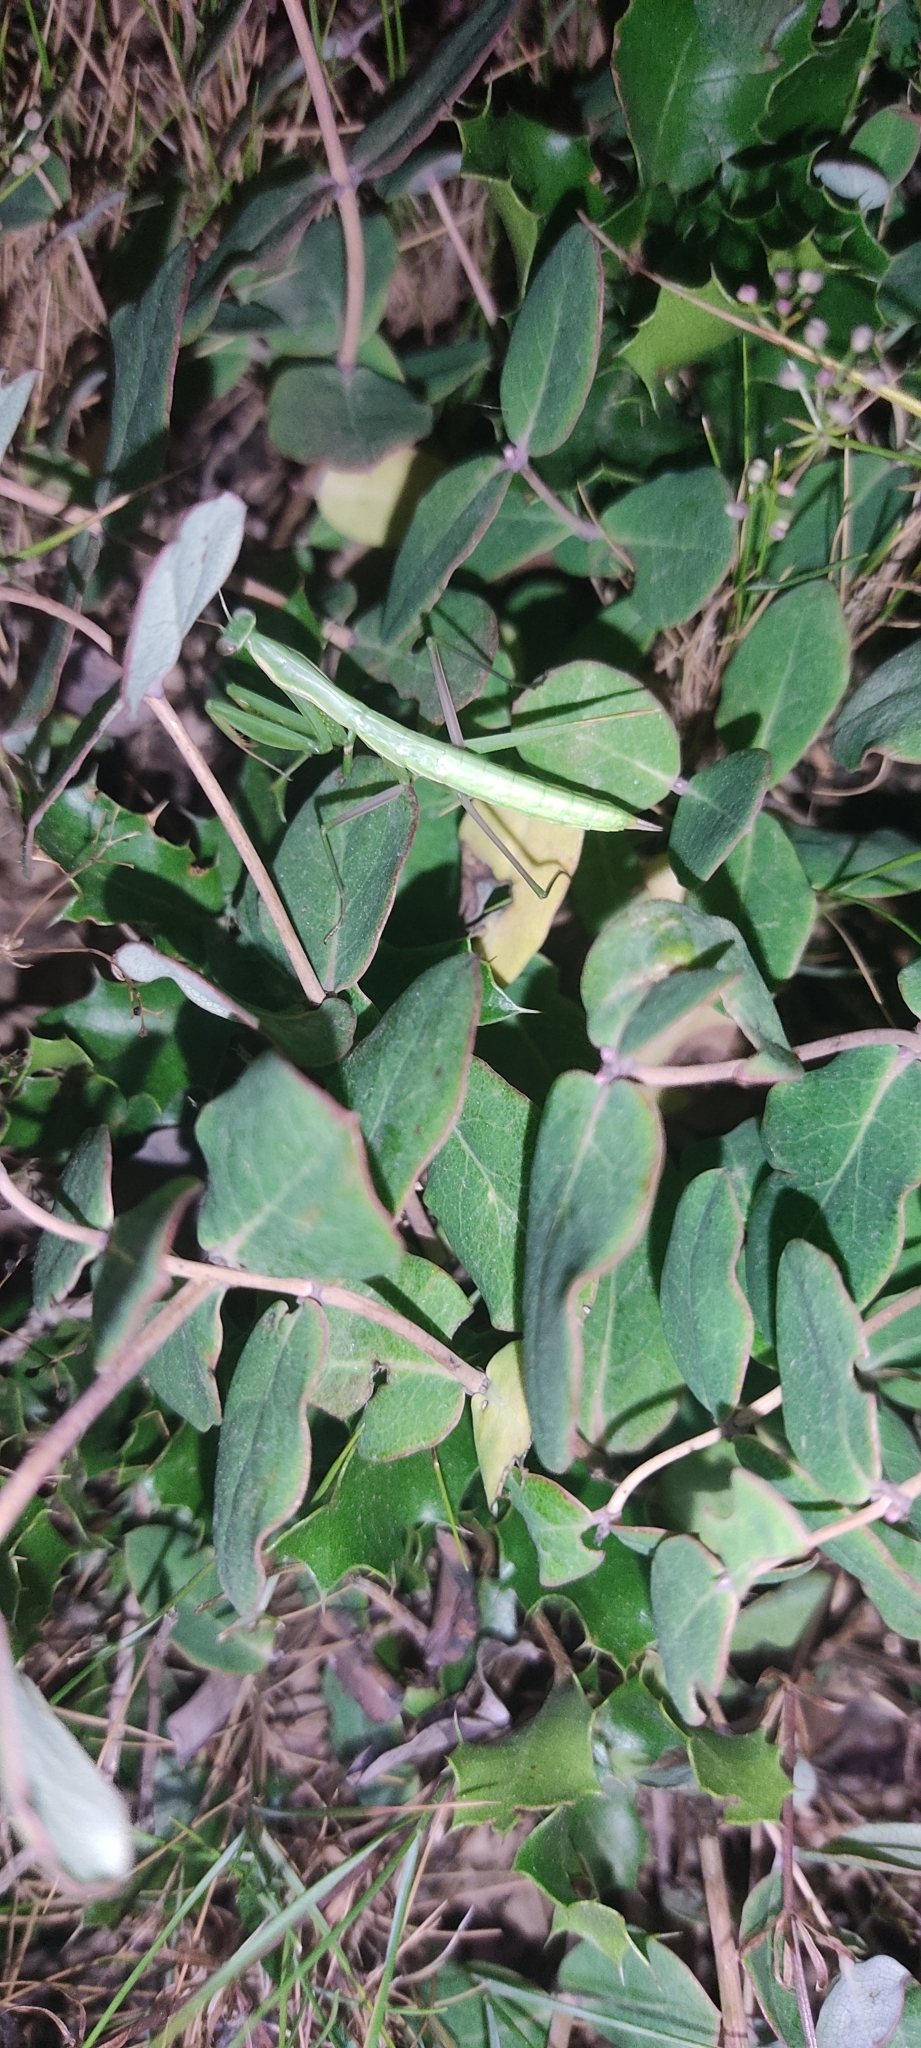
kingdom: Animalia
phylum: Arthropoda
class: Insecta
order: Mantodea
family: Mantidae
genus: Mantis
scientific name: Mantis religiosa
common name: Praying mantis
